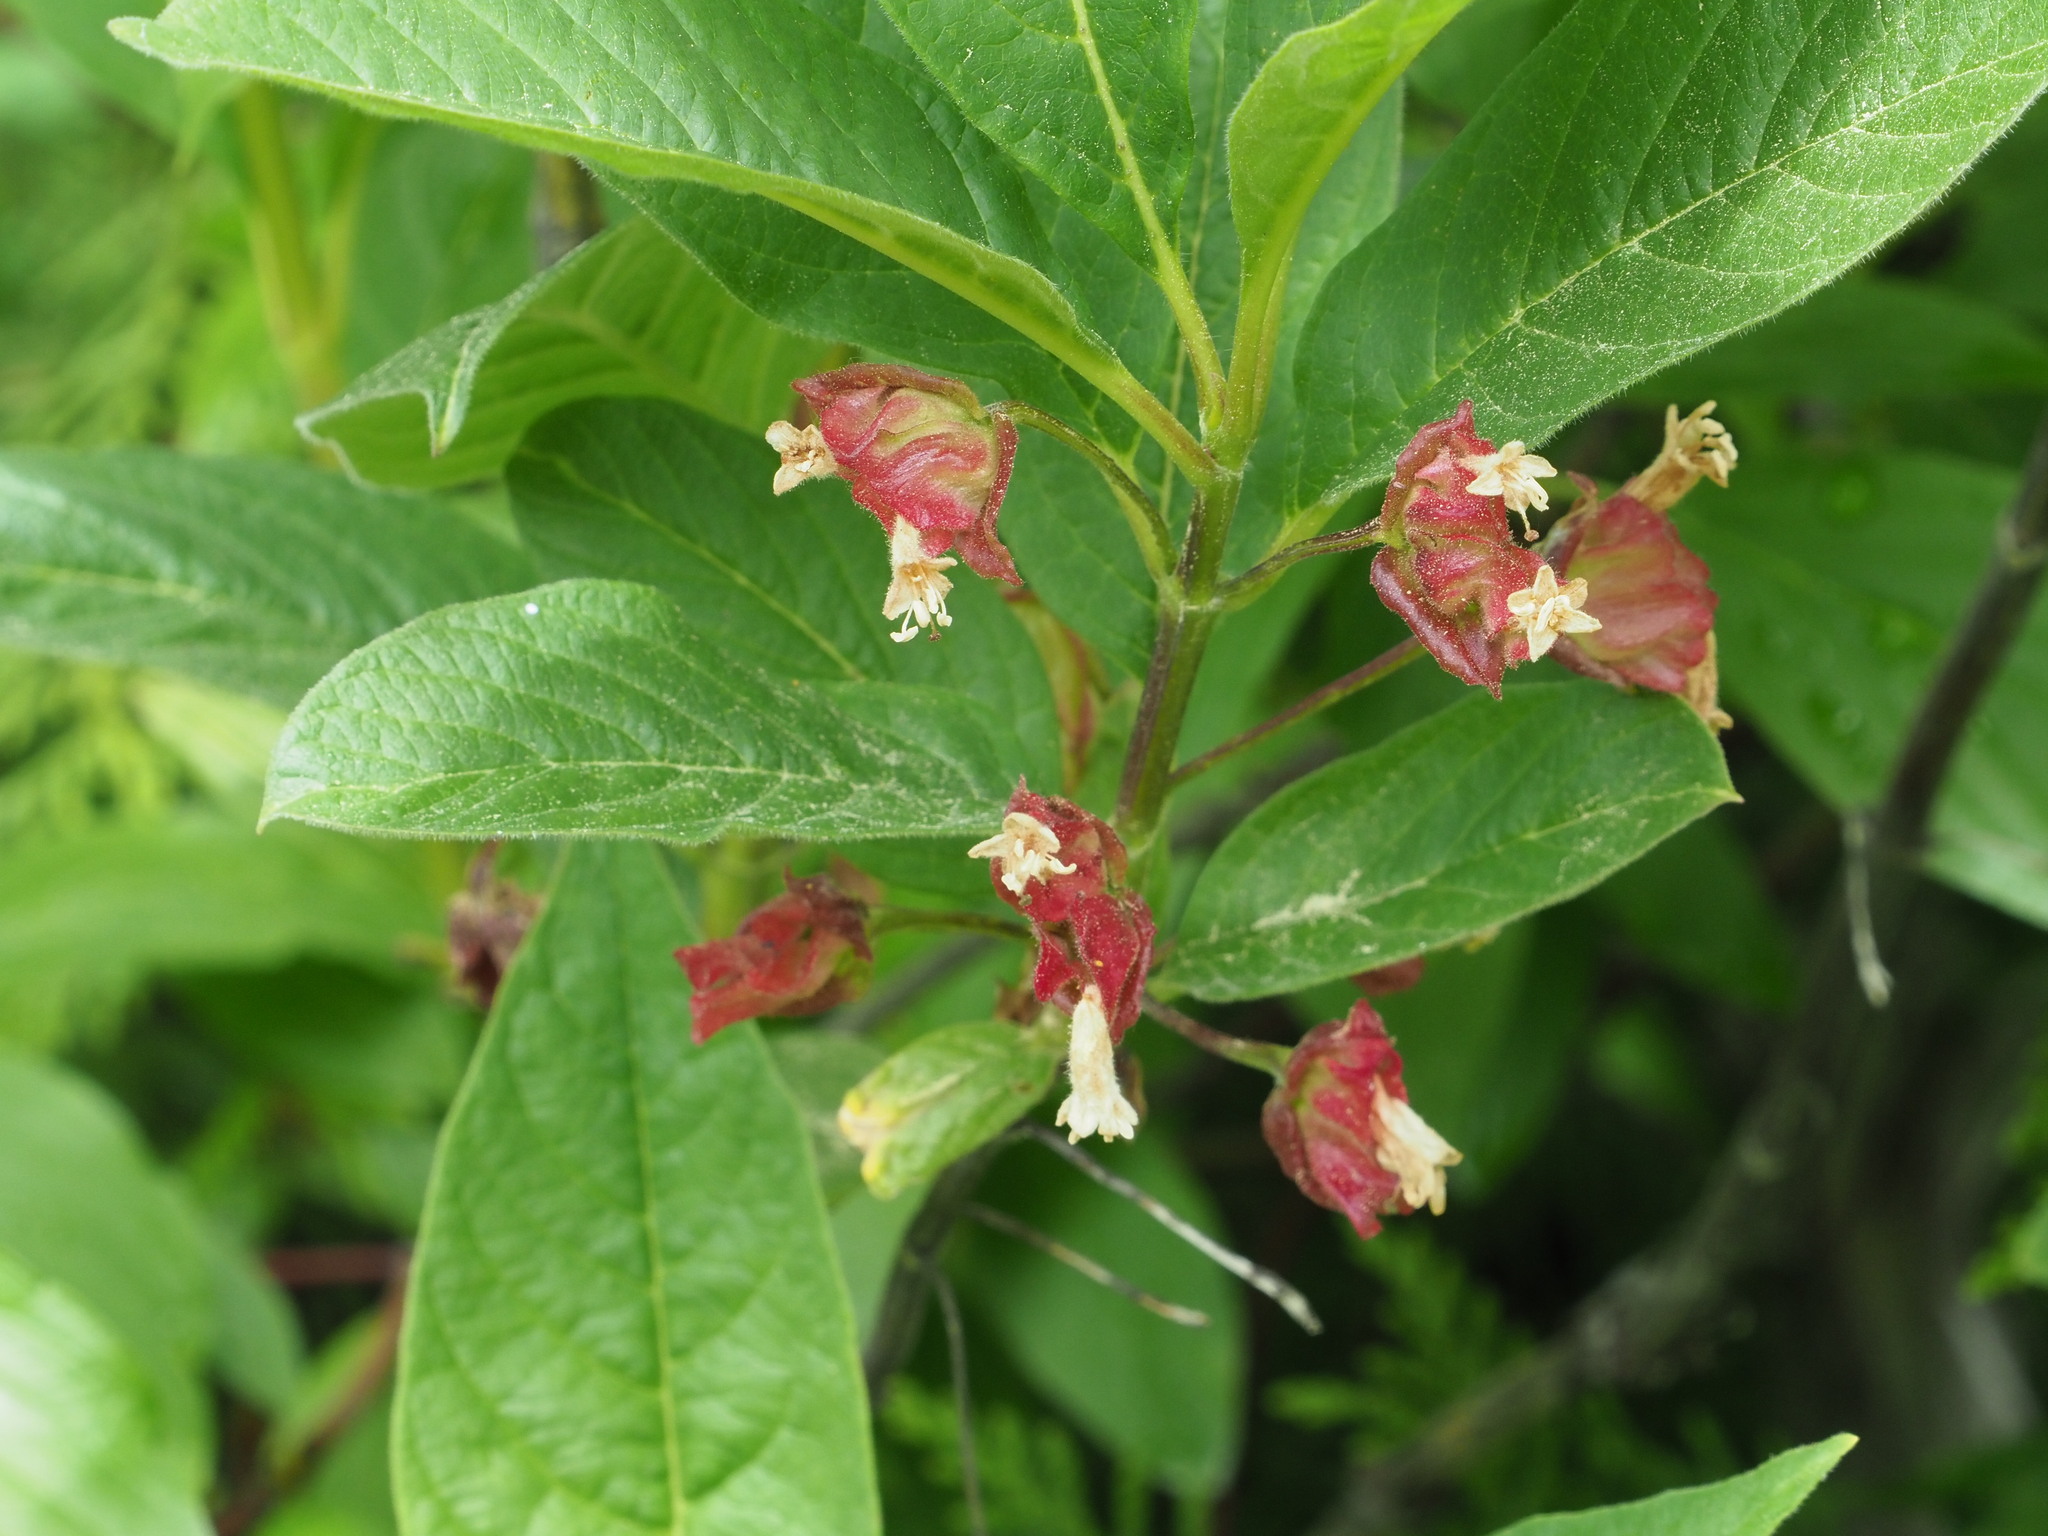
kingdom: Plantae
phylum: Tracheophyta
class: Magnoliopsida
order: Dipsacales
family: Caprifoliaceae
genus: Lonicera
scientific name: Lonicera involucrata
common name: Californian honeysuckle
